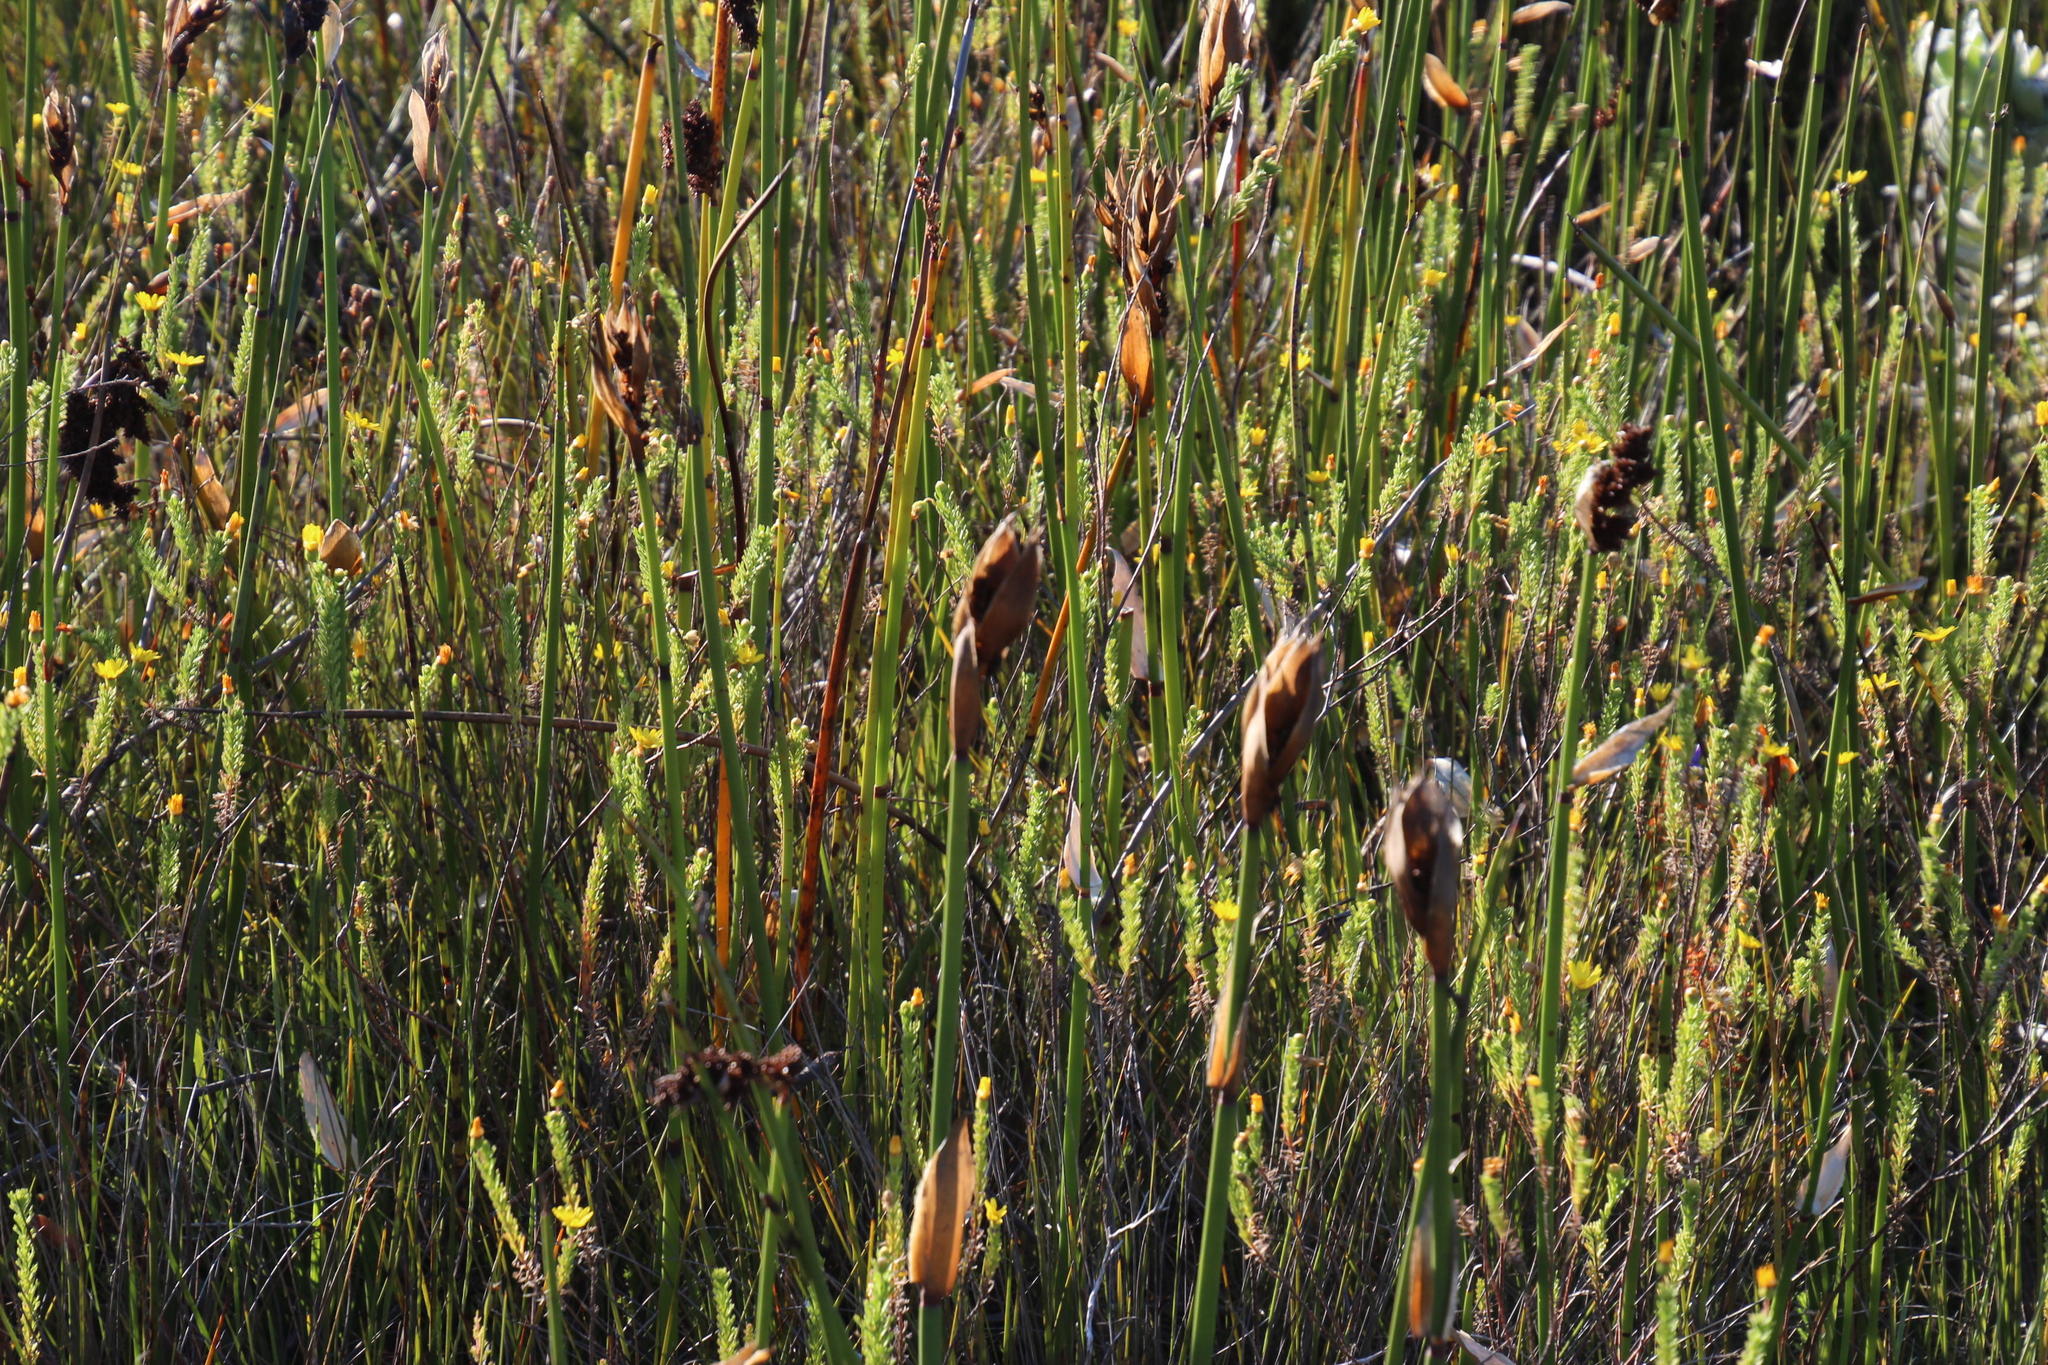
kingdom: Plantae
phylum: Tracheophyta
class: Liliopsida
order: Poales
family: Restionaceae
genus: Elegia
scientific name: Elegia mucronata
